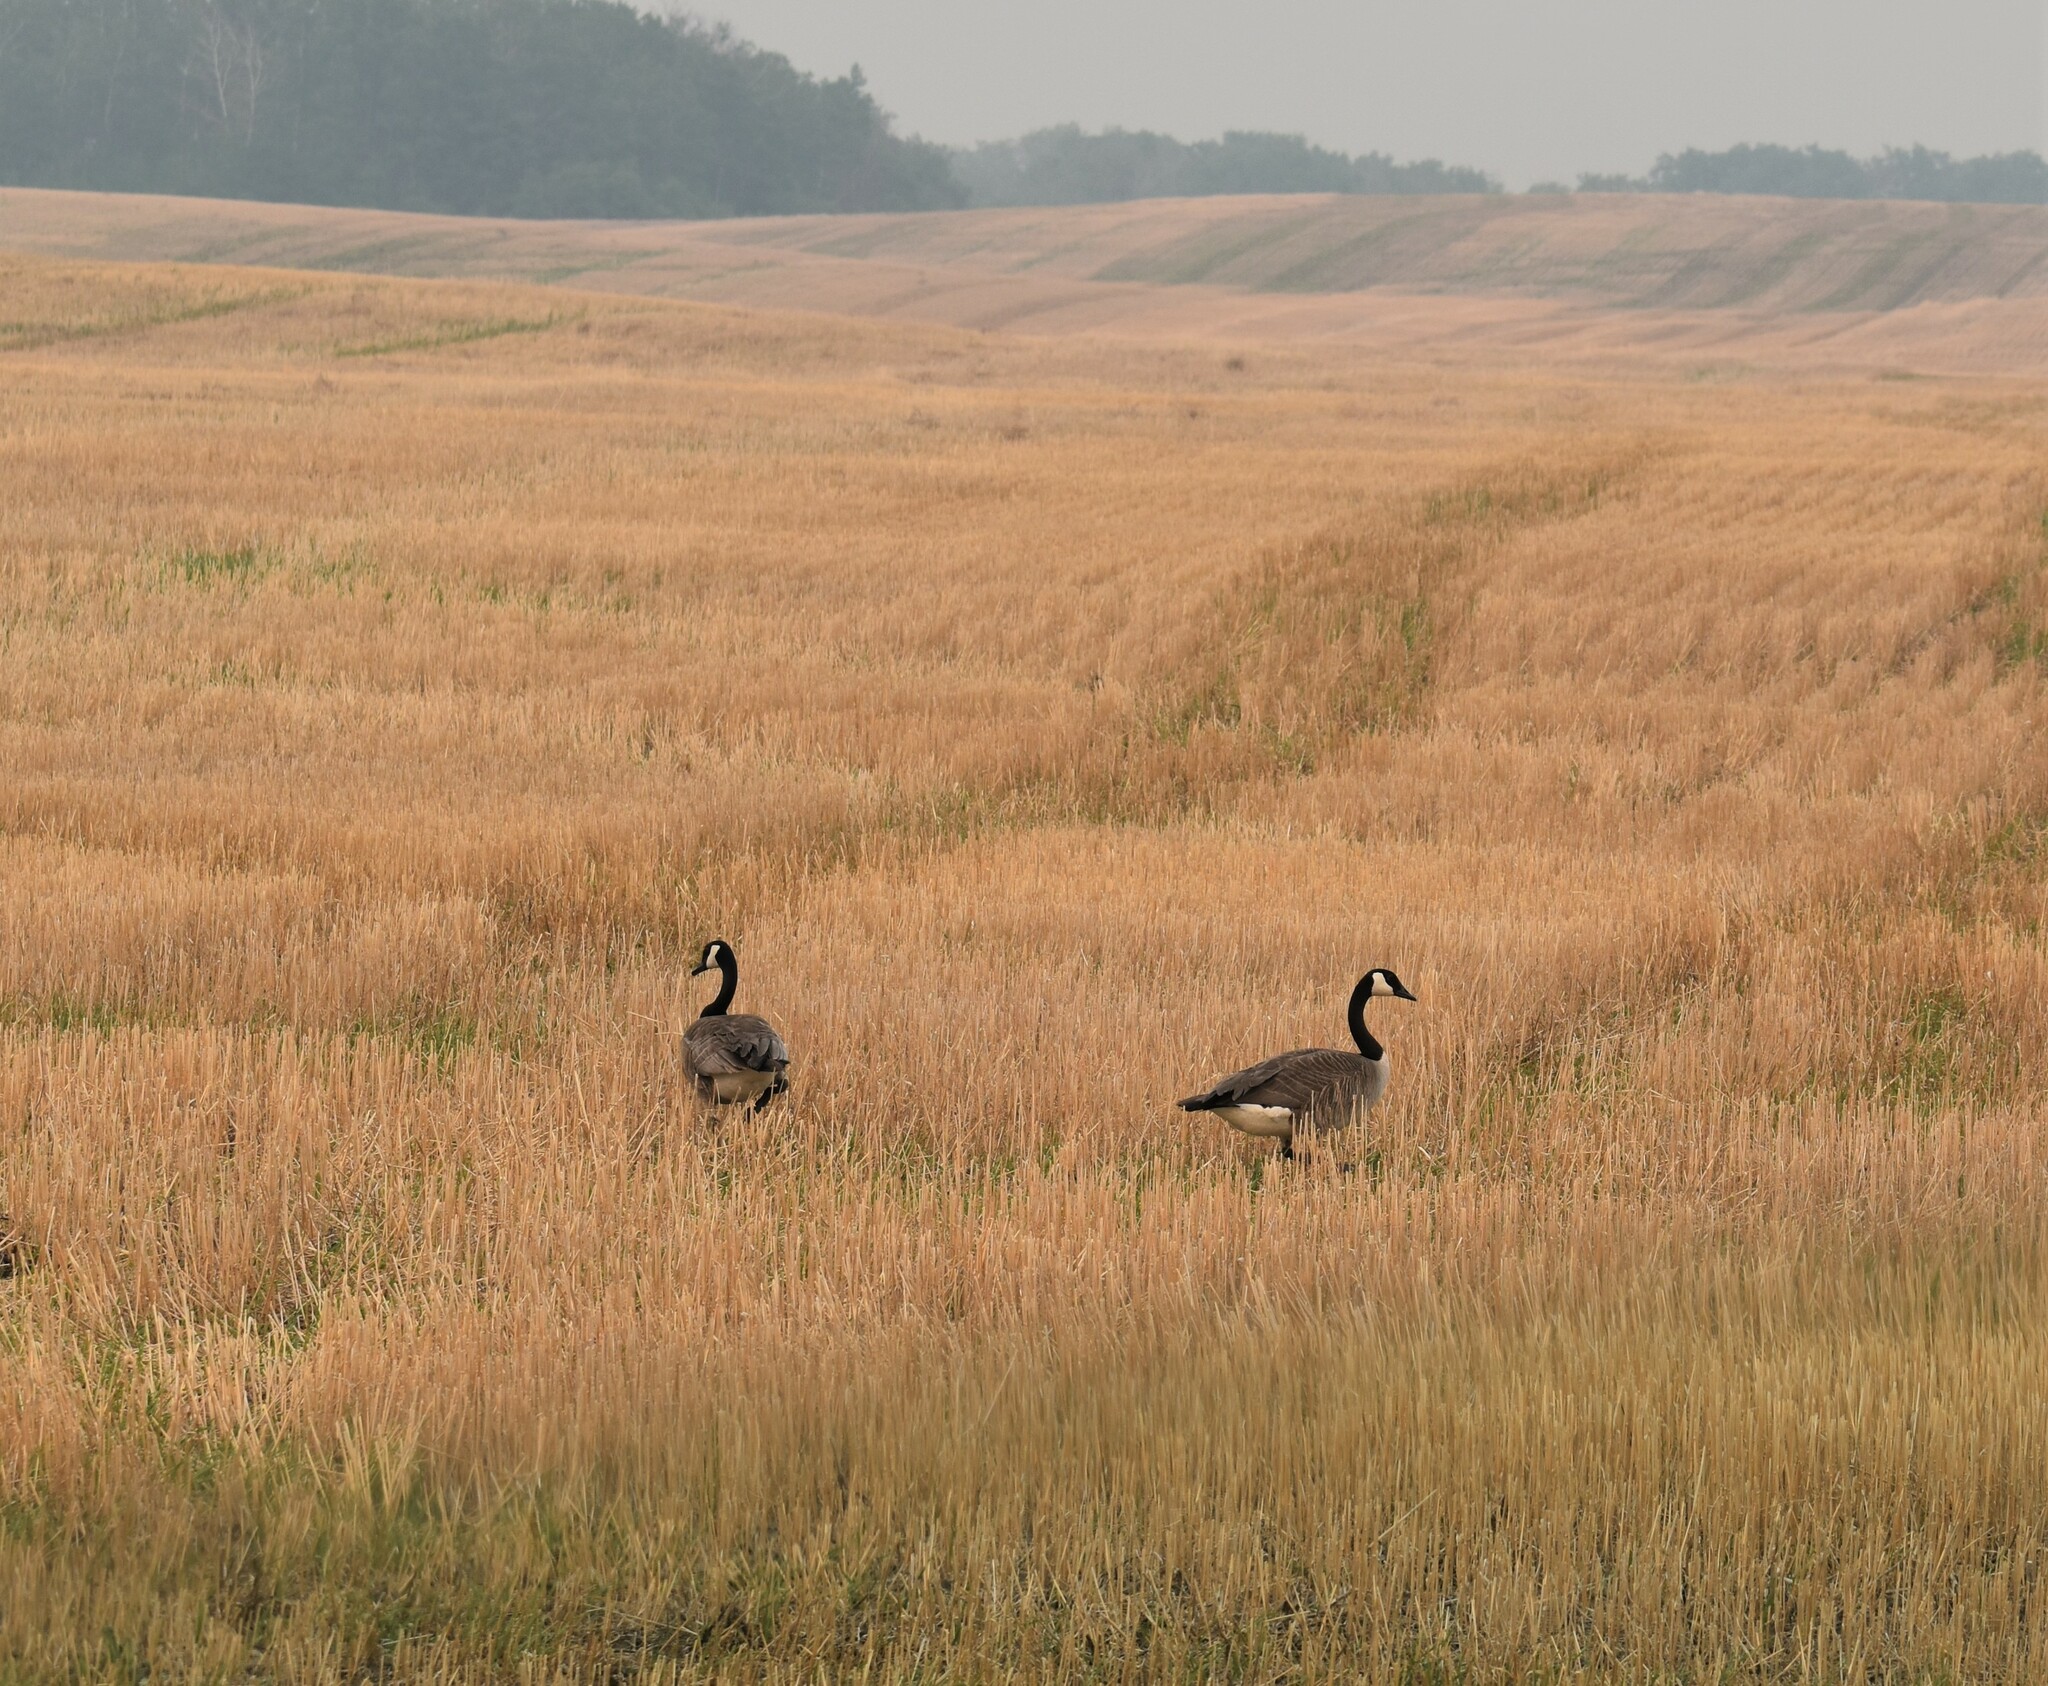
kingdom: Animalia
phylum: Chordata
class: Aves
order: Anseriformes
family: Anatidae
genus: Branta
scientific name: Branta canadensis
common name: Canada goose
